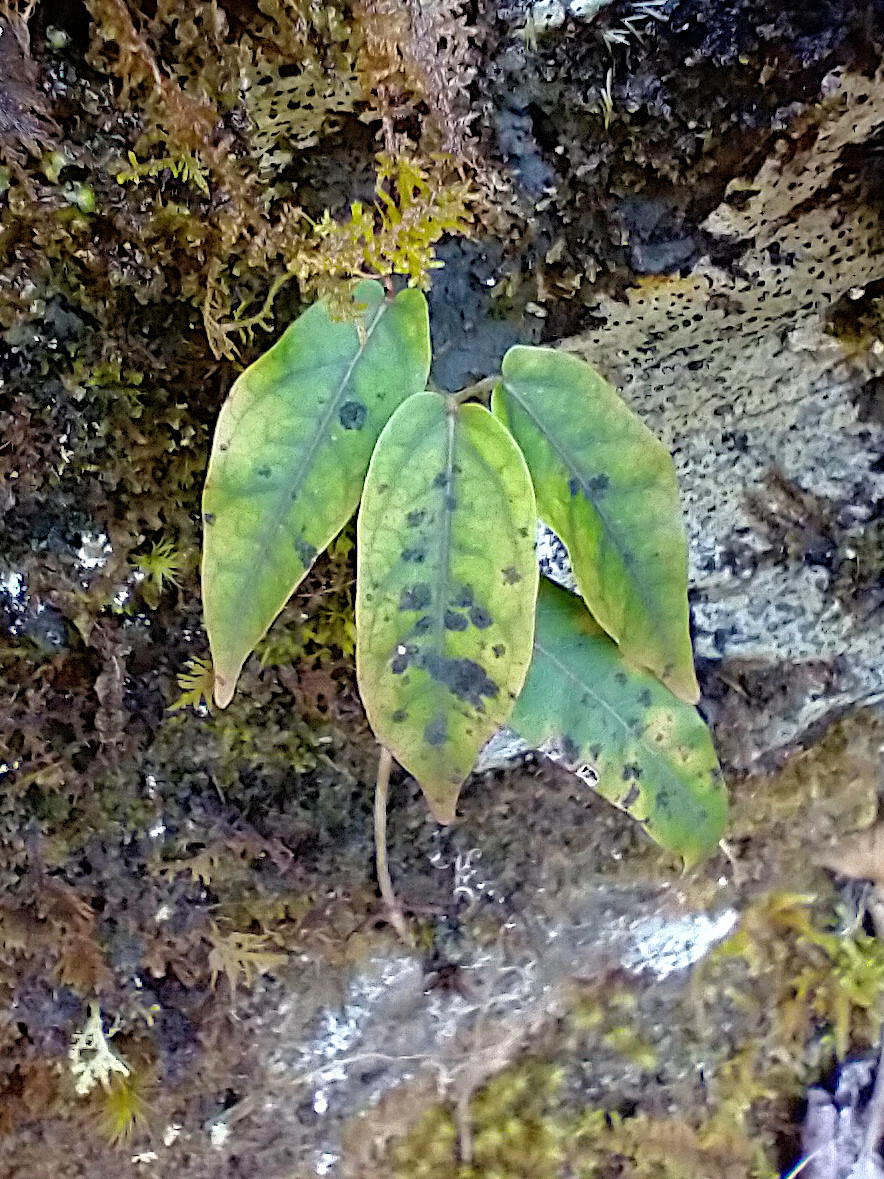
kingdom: Plantae
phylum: Tracheophyta
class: Magnoliopsida
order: Lamiales
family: Bignoniaceae
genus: Bignonia
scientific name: Bignonia capreolata
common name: Crossvine
